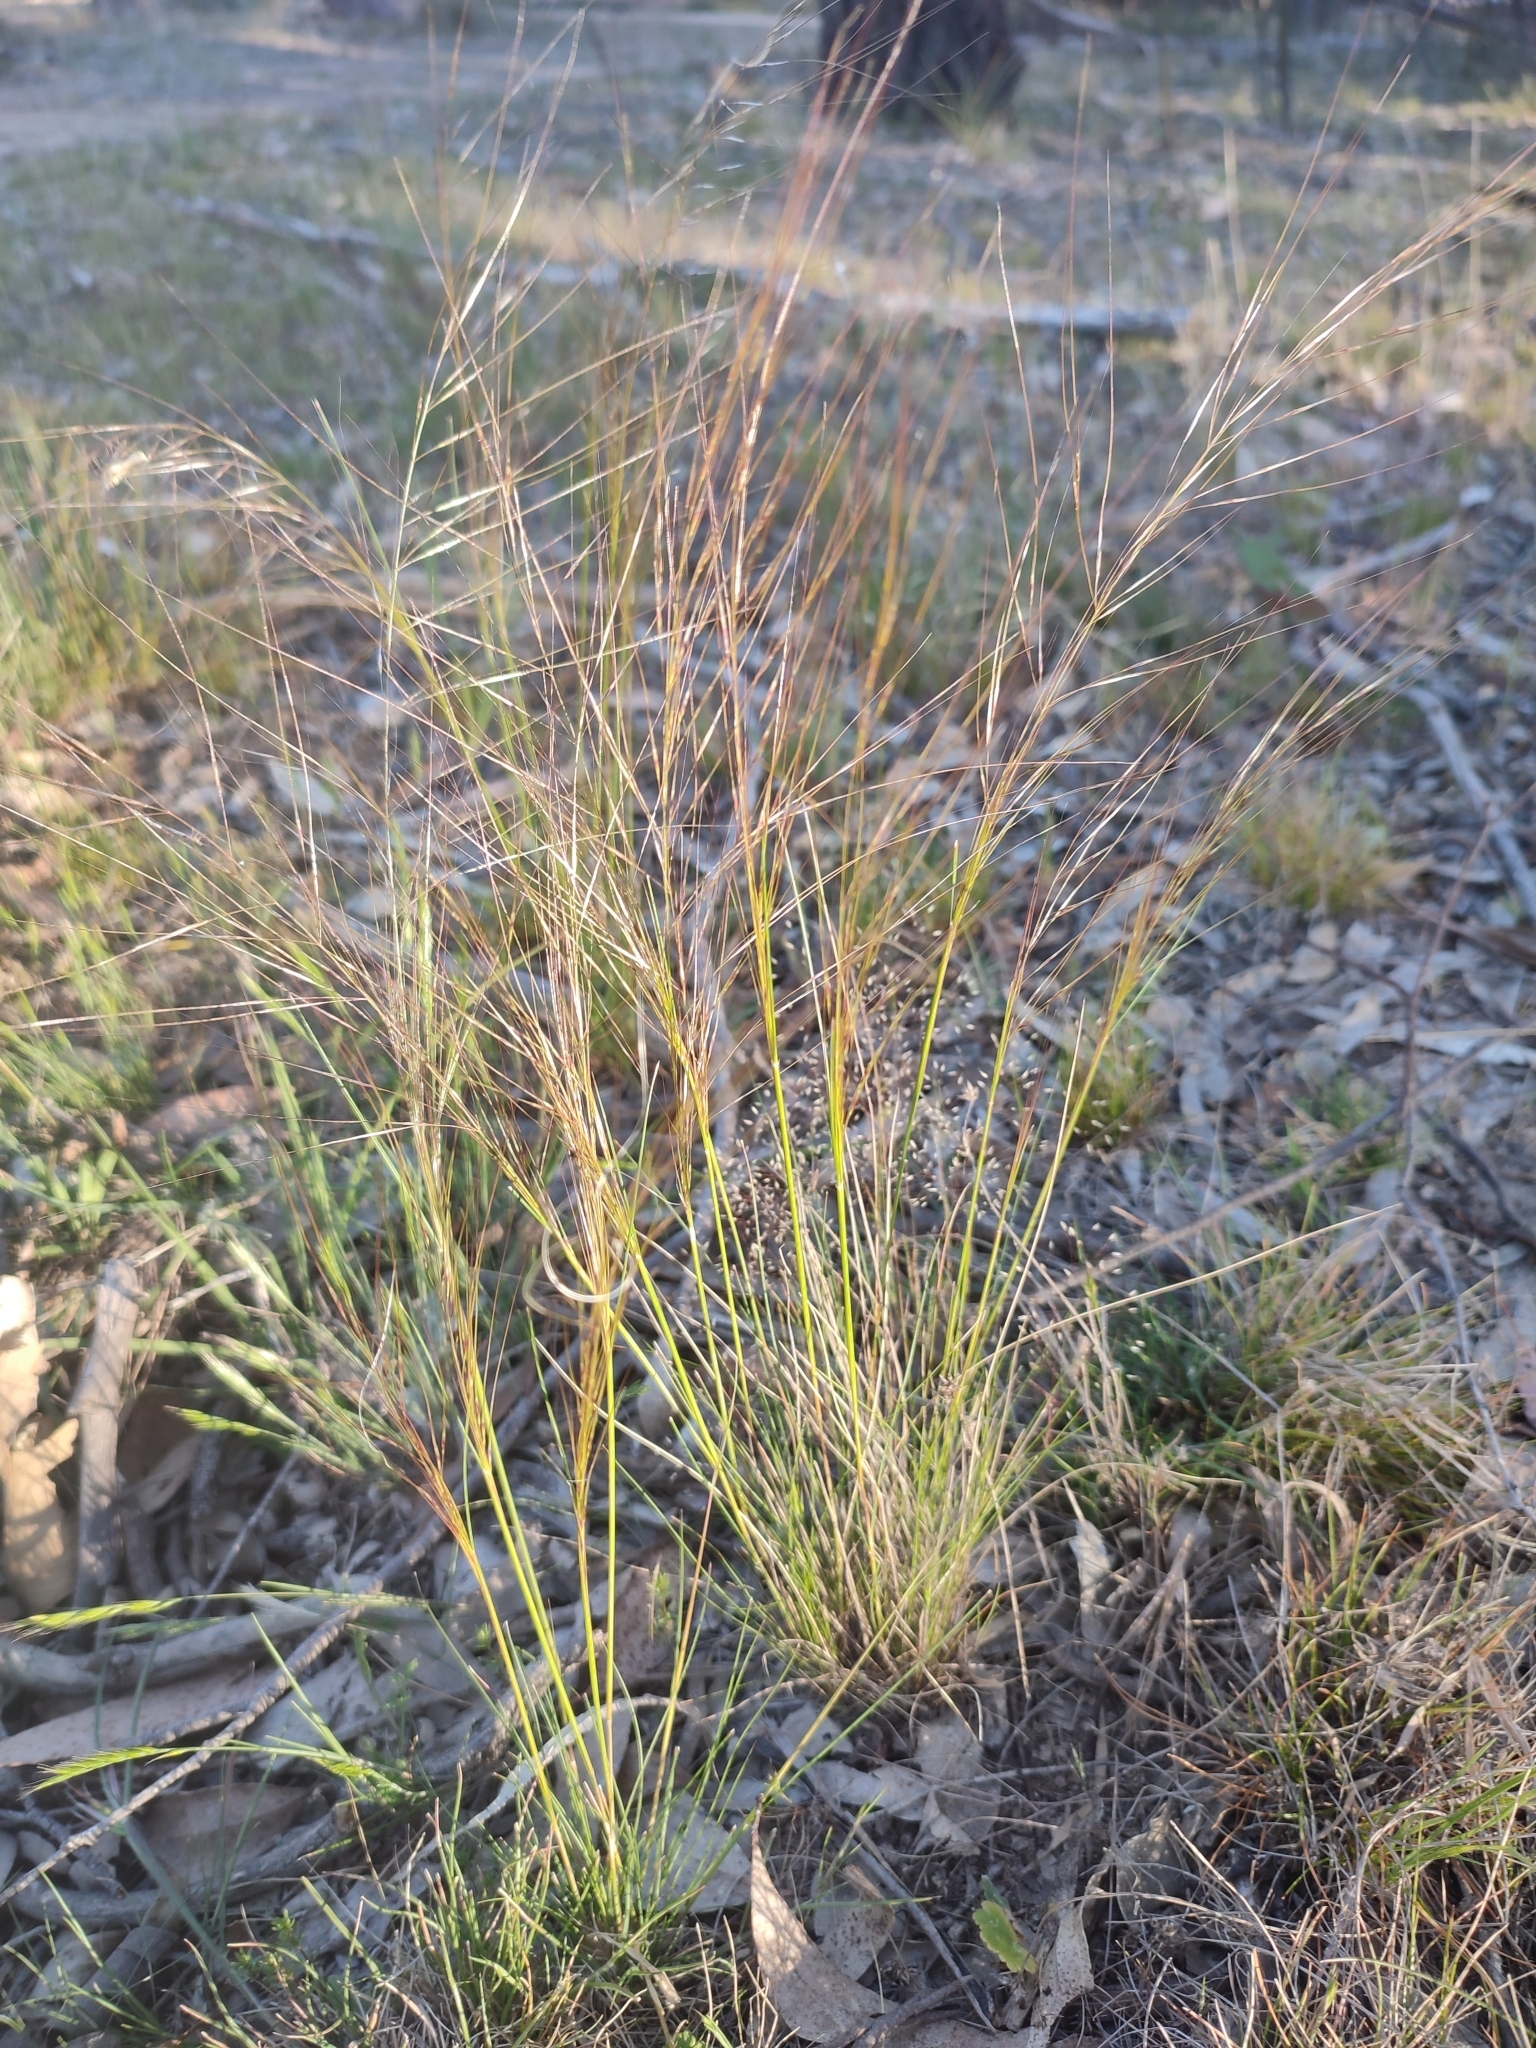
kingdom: Plantae
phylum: Tracheophyta
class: Liliopsida
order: Poales
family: Poaceae
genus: Austrostipa
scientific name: Austrostipa scabra
